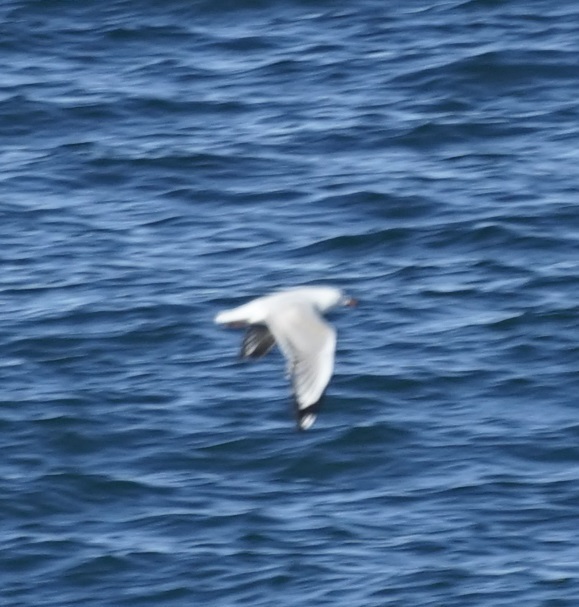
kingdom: Animalia
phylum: Chordata
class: Aves
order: Charadriiformes
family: Laridae
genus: Chroicocephalus
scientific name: Chroicocephalus novaehollandiae
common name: Silver gull
